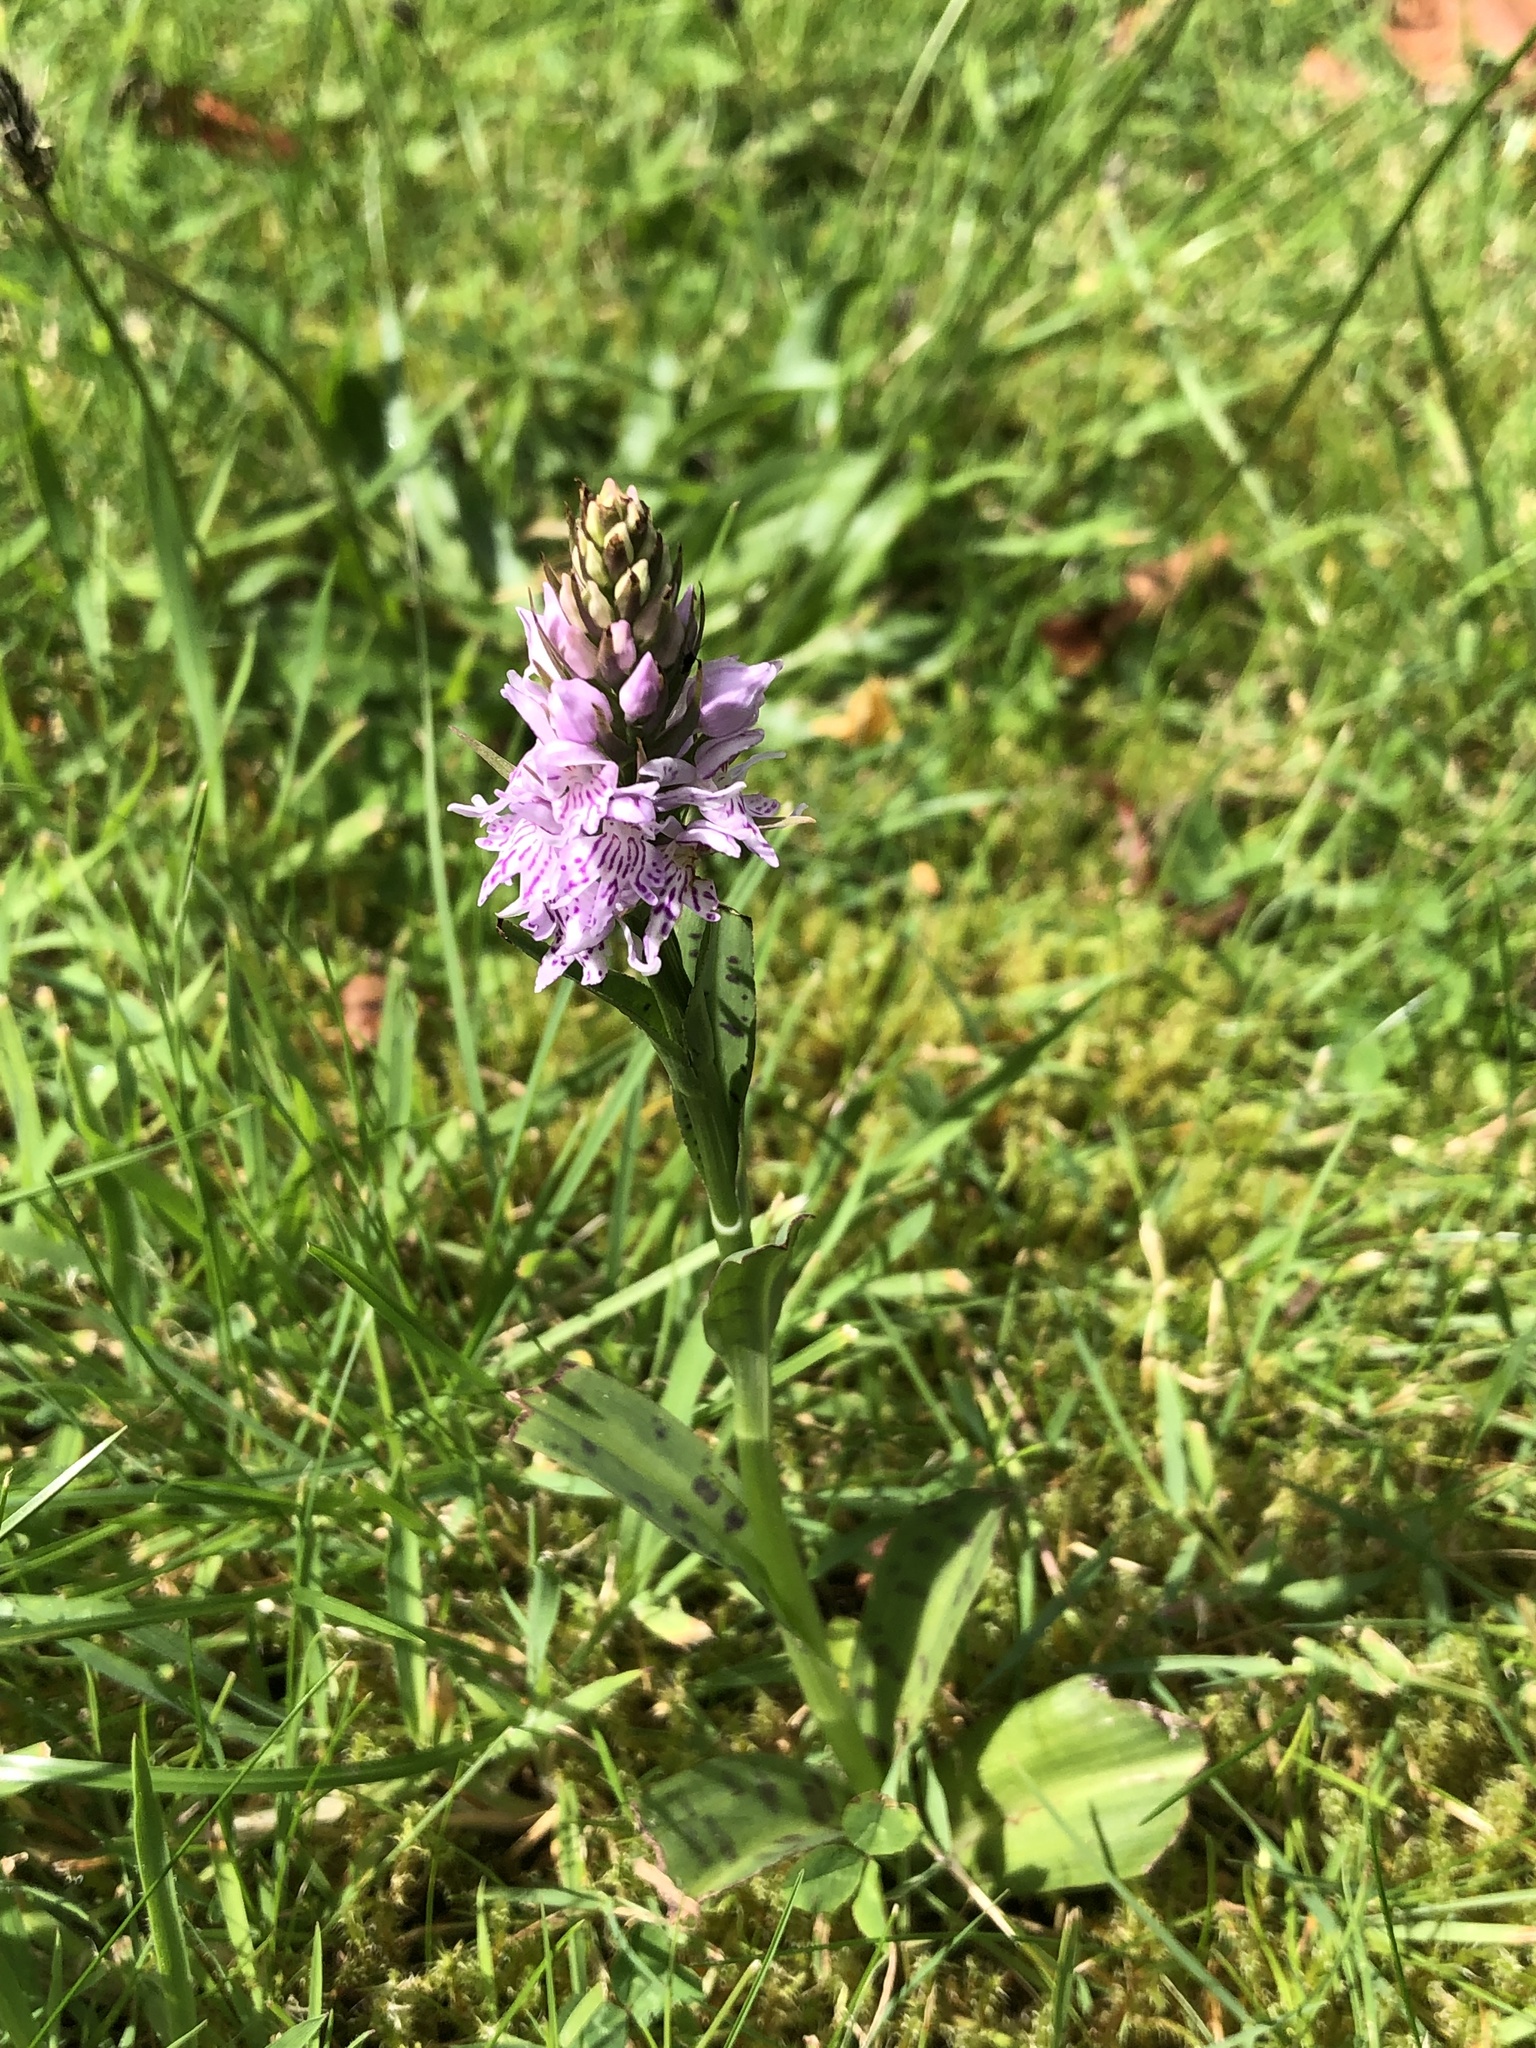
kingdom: Plantae
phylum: Tracheophyta
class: Liliopsida
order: Asparagales
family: Orchidaceae
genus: Dactylorhiza
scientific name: Dactylorhiza maculata
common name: Heath spotted-orchid
